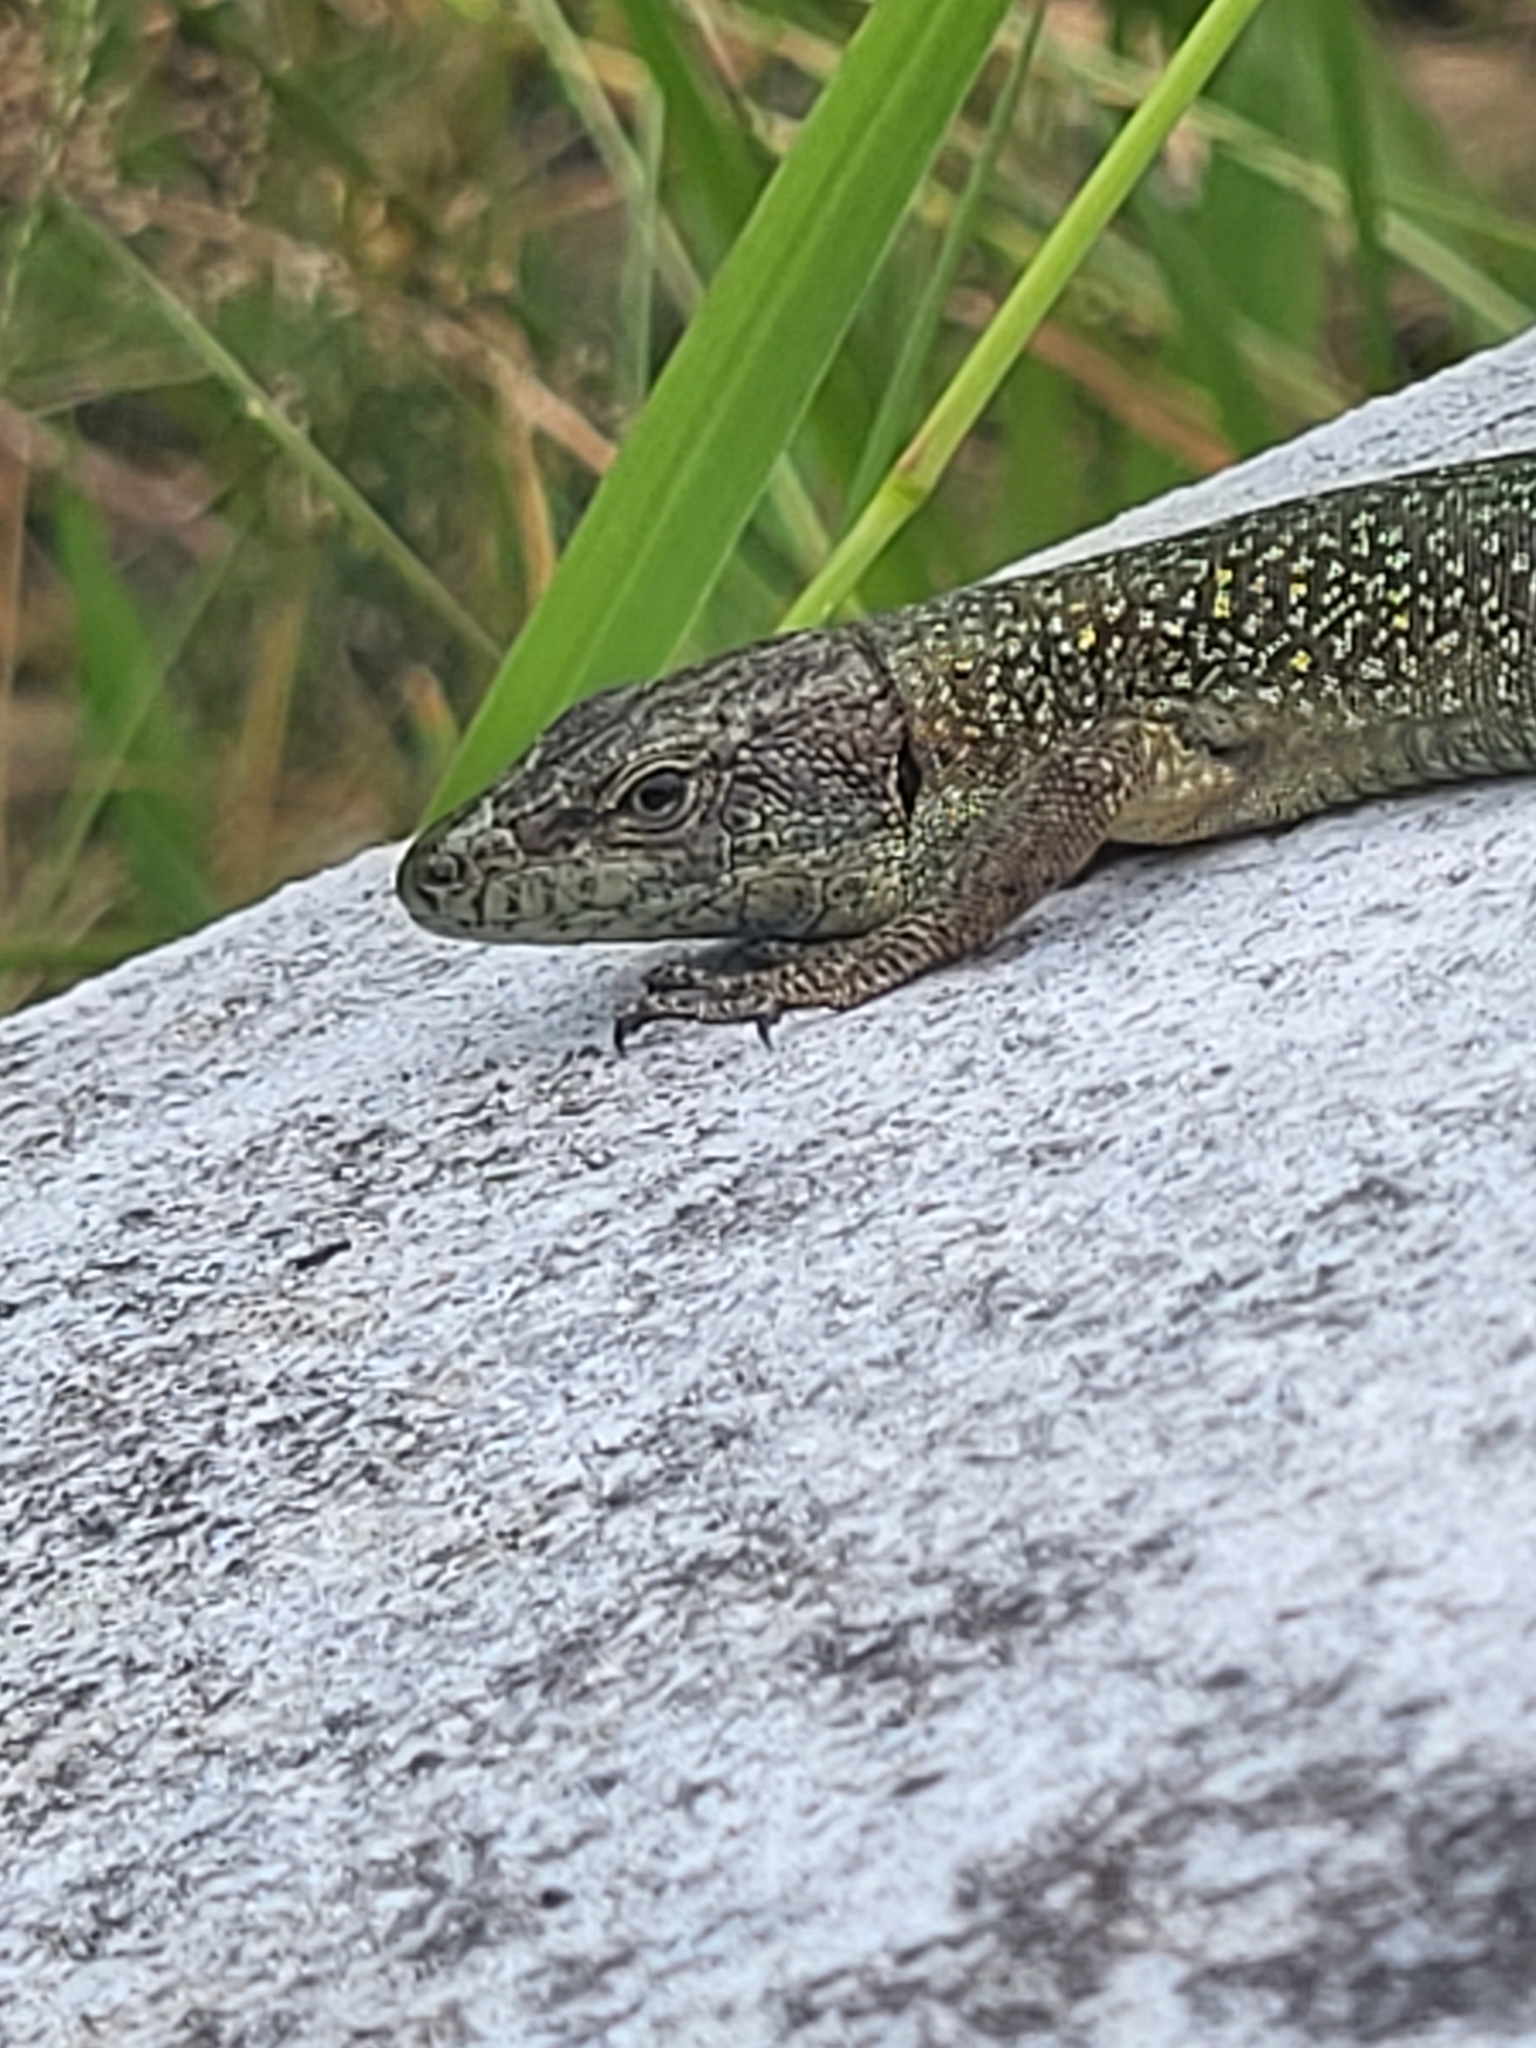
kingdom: Animalia
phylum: Chordata
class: Squamata
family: Lacertidae
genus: Teira
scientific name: Teira dugesii
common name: Madeira lizard
